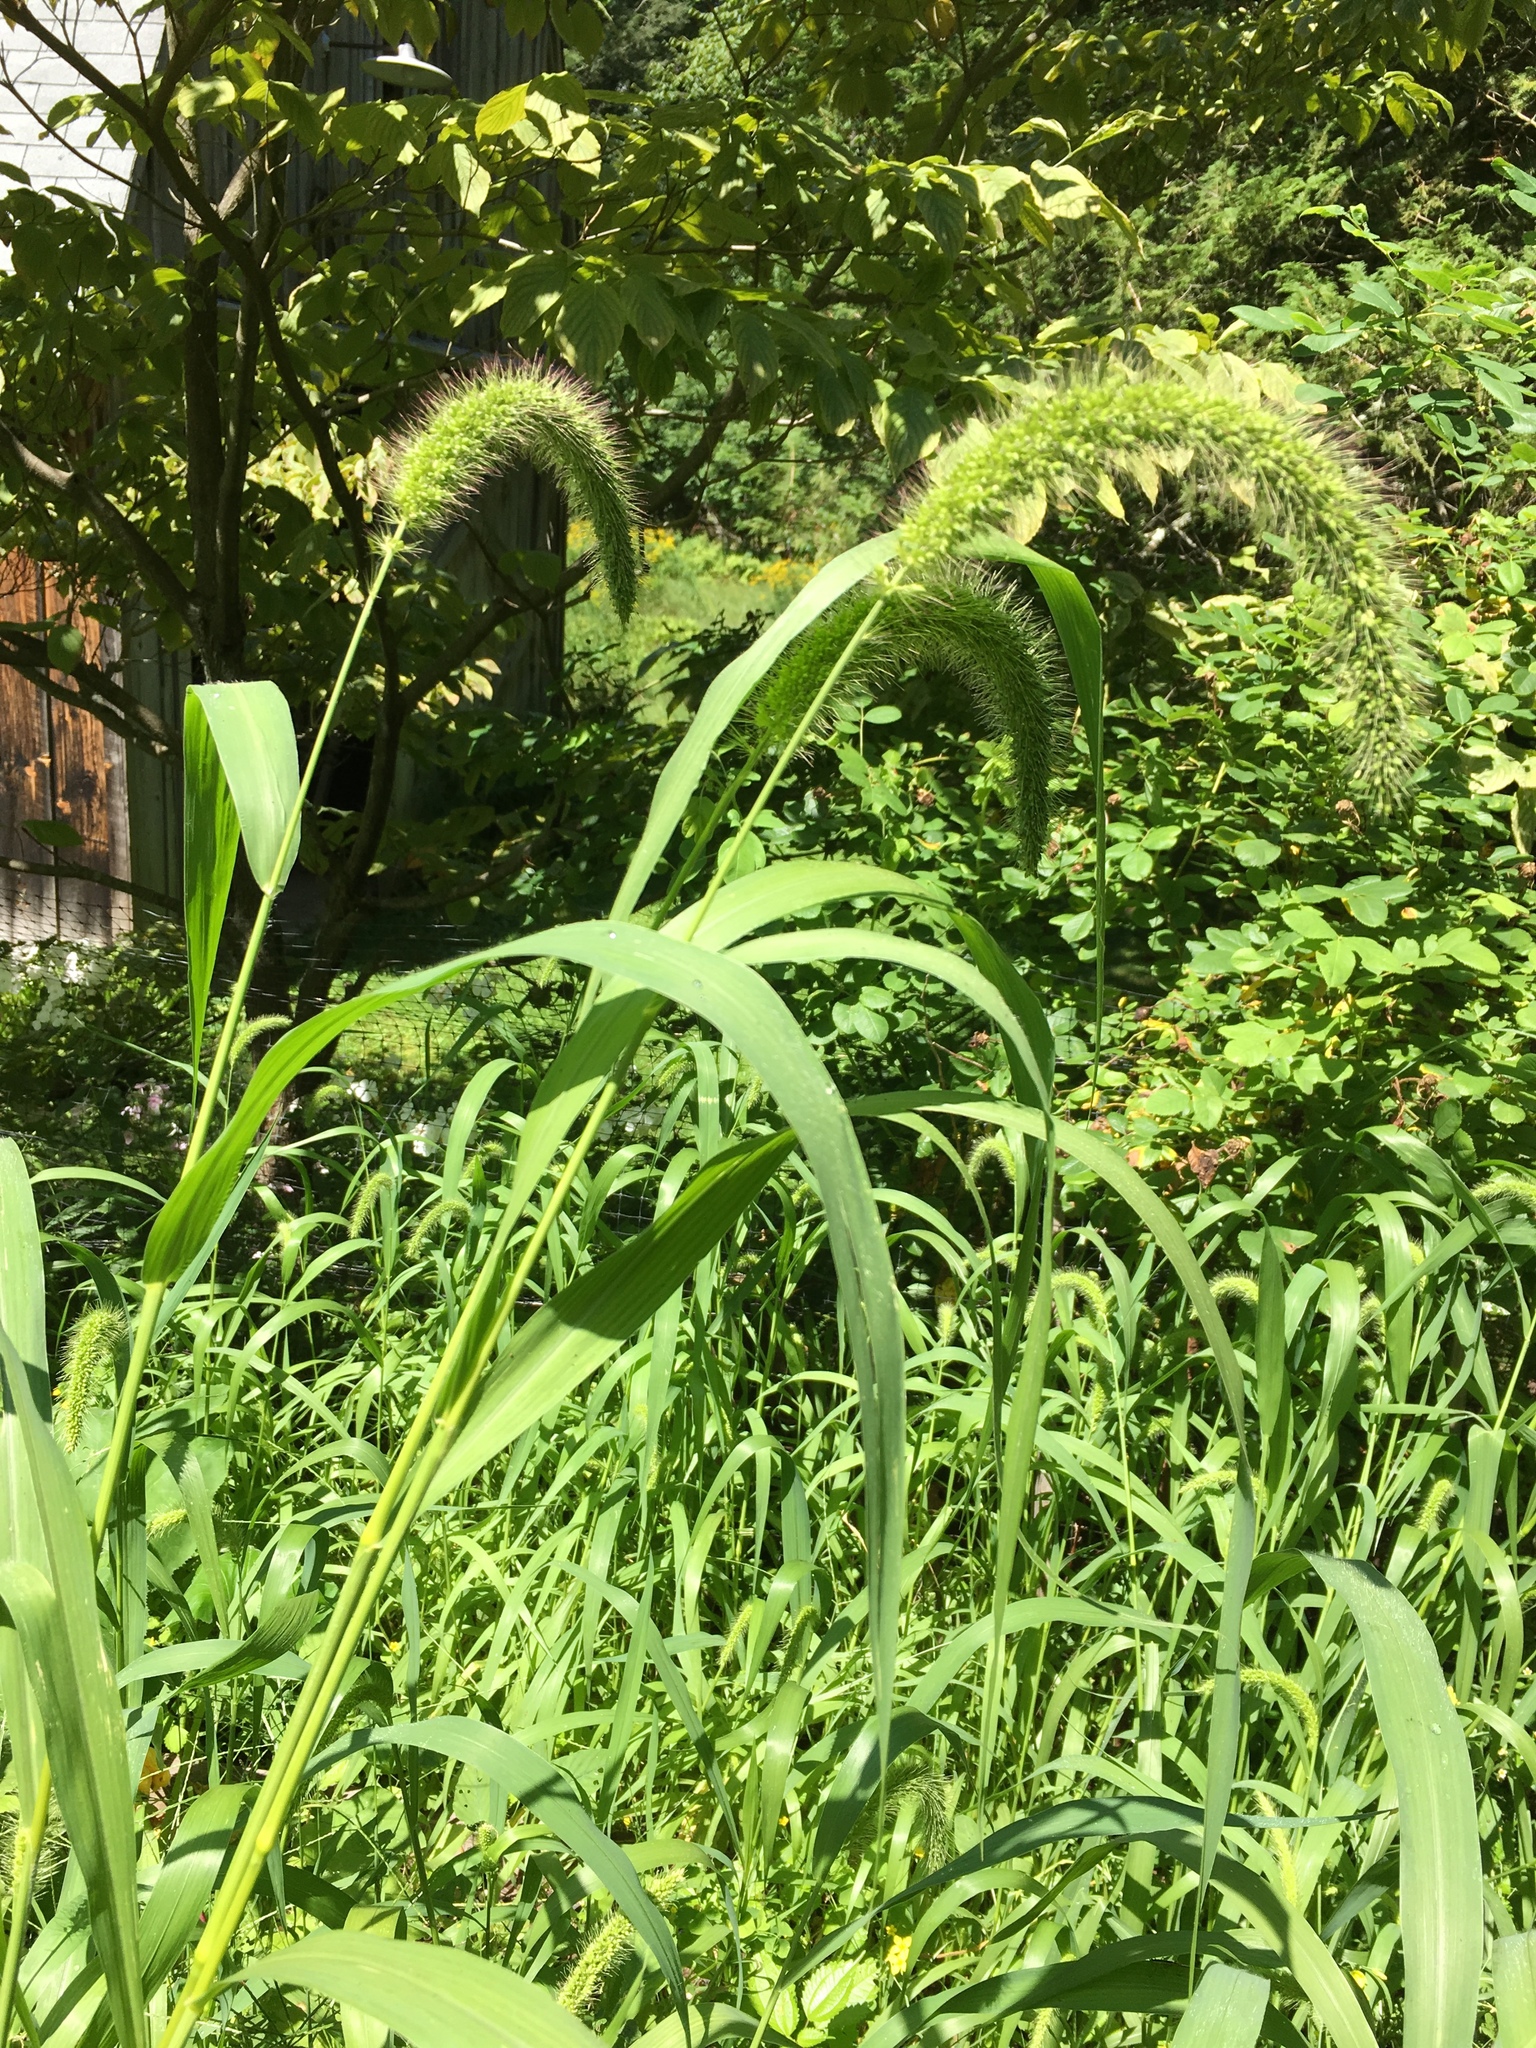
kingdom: Plantae
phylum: Tracheophyta
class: Liliopsida
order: Poales
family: Poaceae
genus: Setaria
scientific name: Setaria faberi
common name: Nodding bristle-grass
